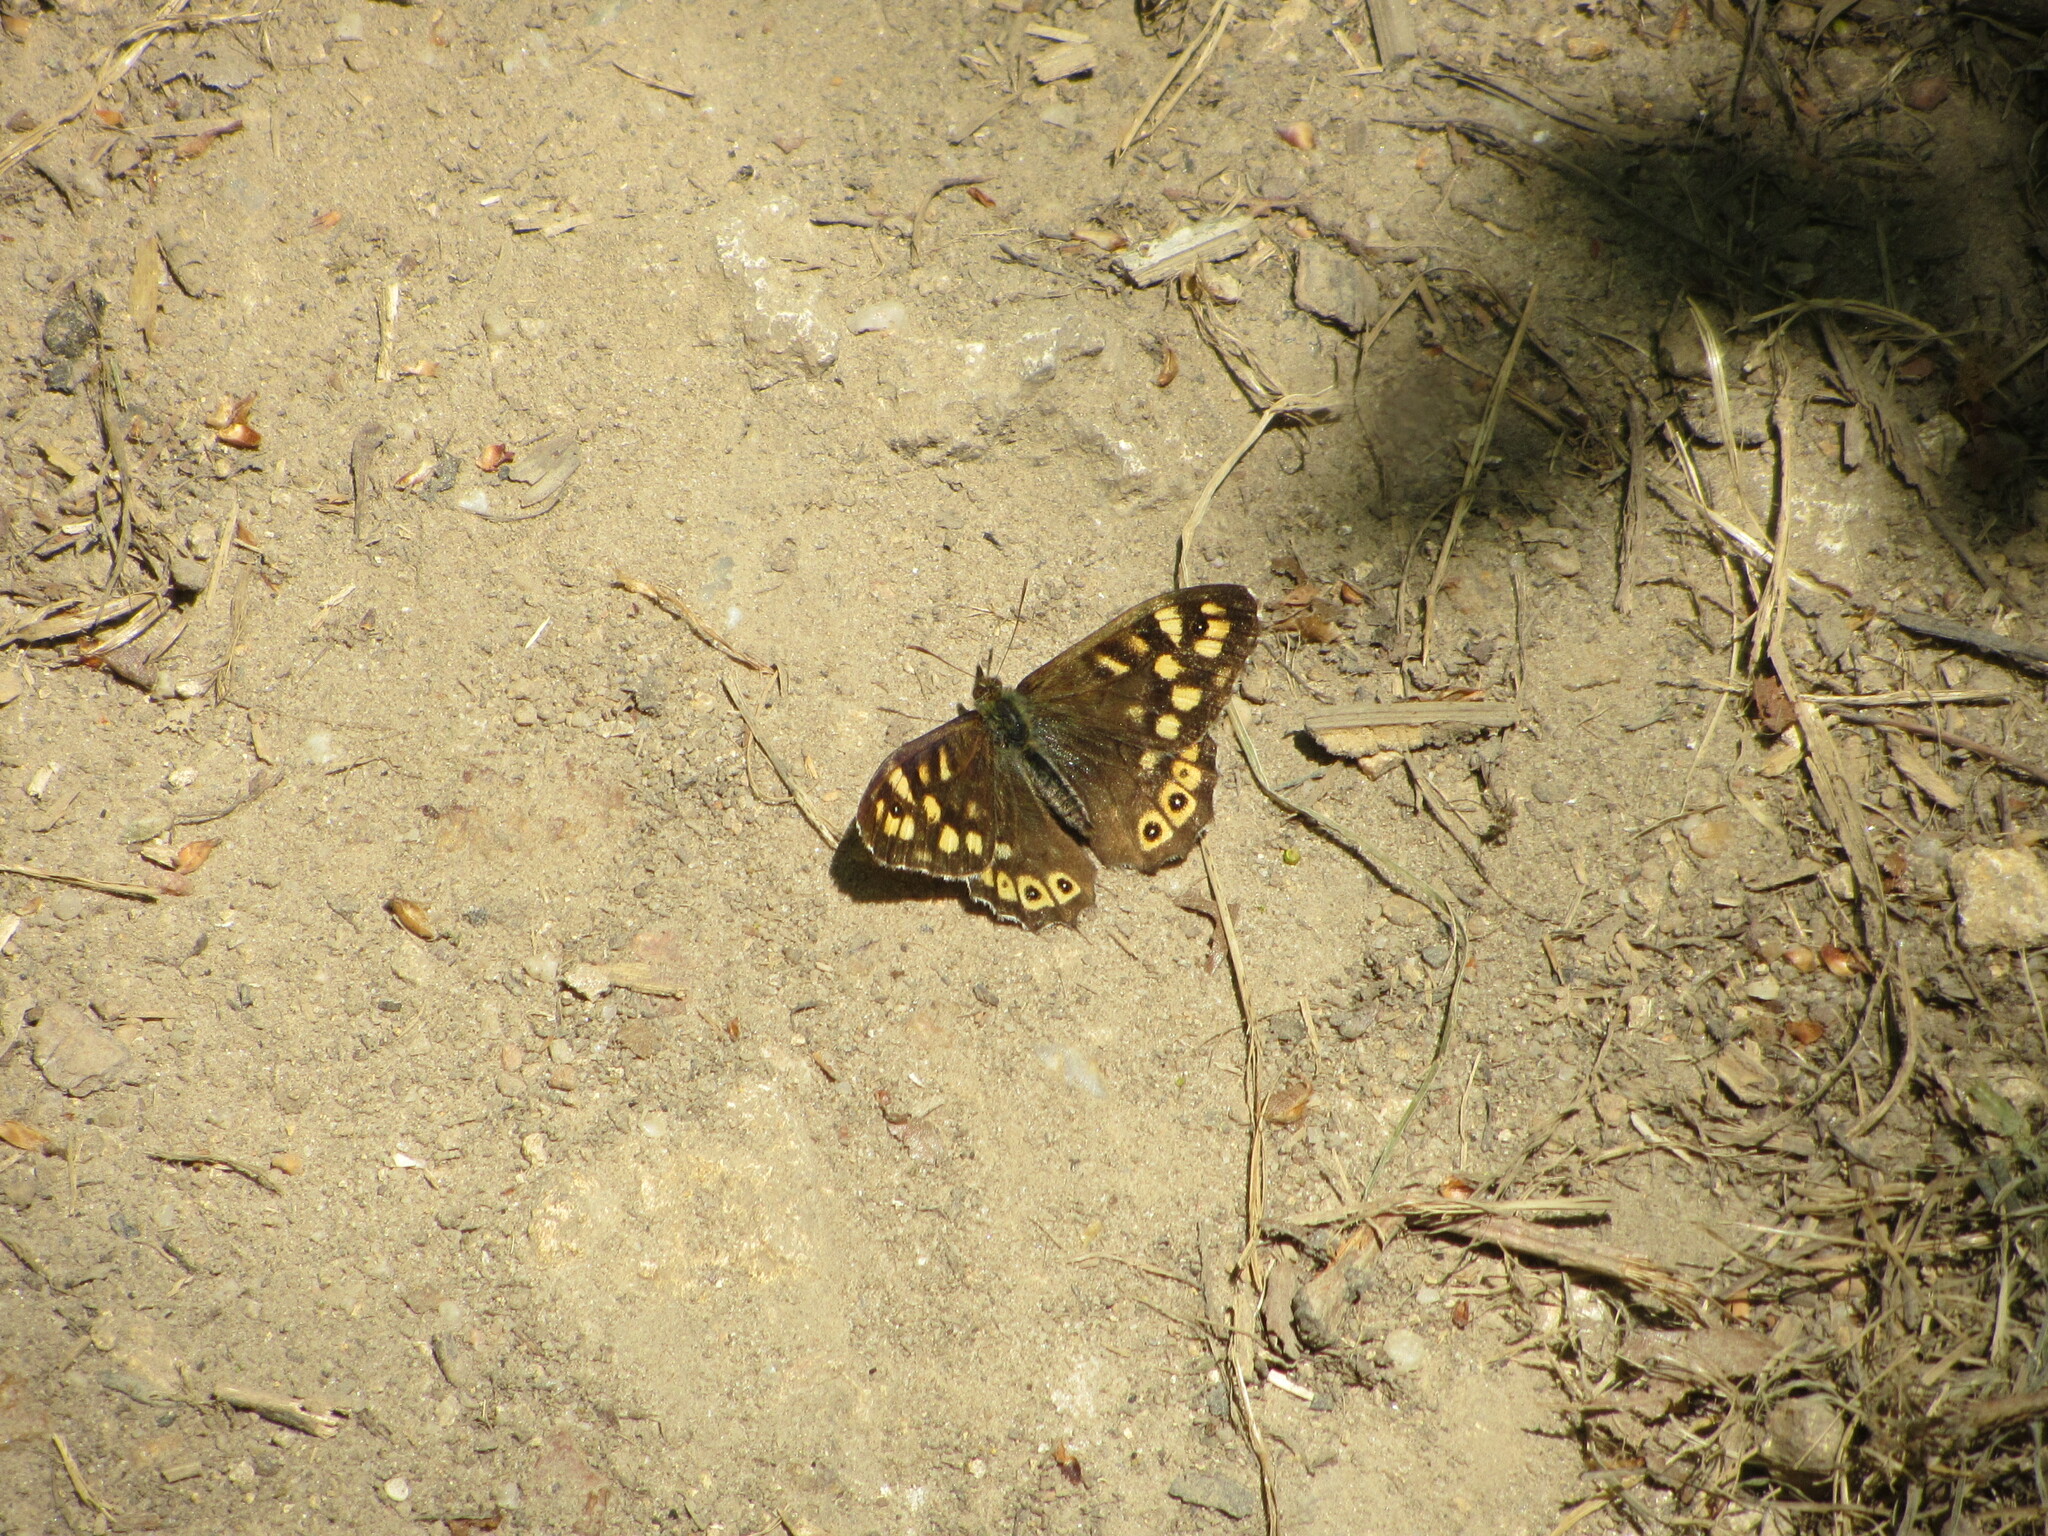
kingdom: Animalia
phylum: Arthropoda
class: Insecta
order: Lepidoptera
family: Nymphalidae
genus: Pararge
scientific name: Pararge aegeria
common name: Speckled wood
